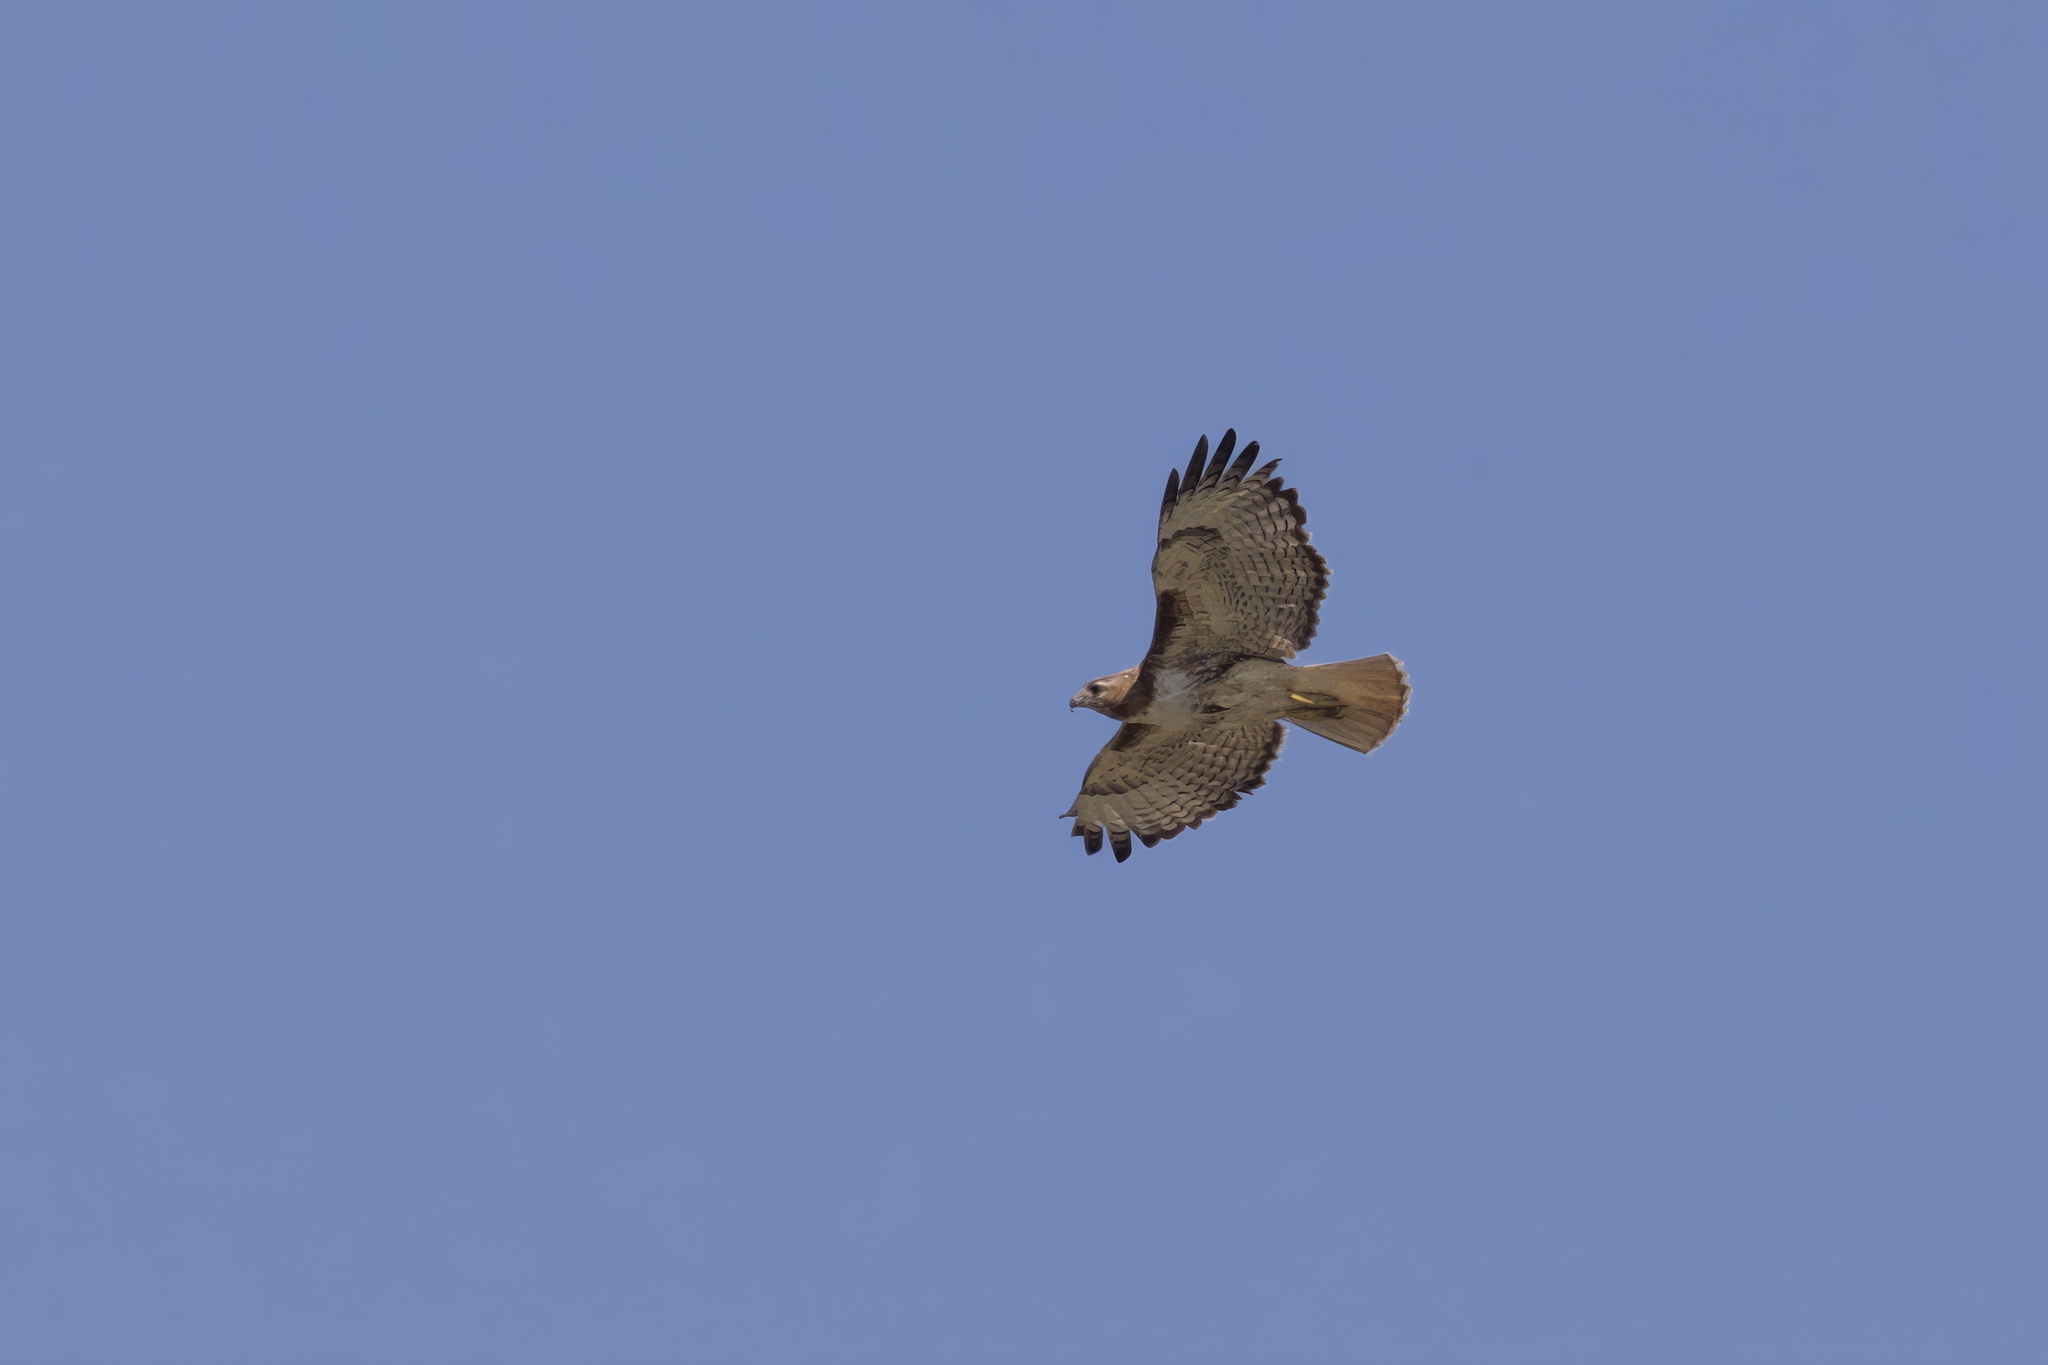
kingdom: Animalia
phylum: Chordata
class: Aves
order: Accipitriformes
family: Accipitridae
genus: Buteo
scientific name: Buteo jamaicensis
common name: Red-tailed hawk
